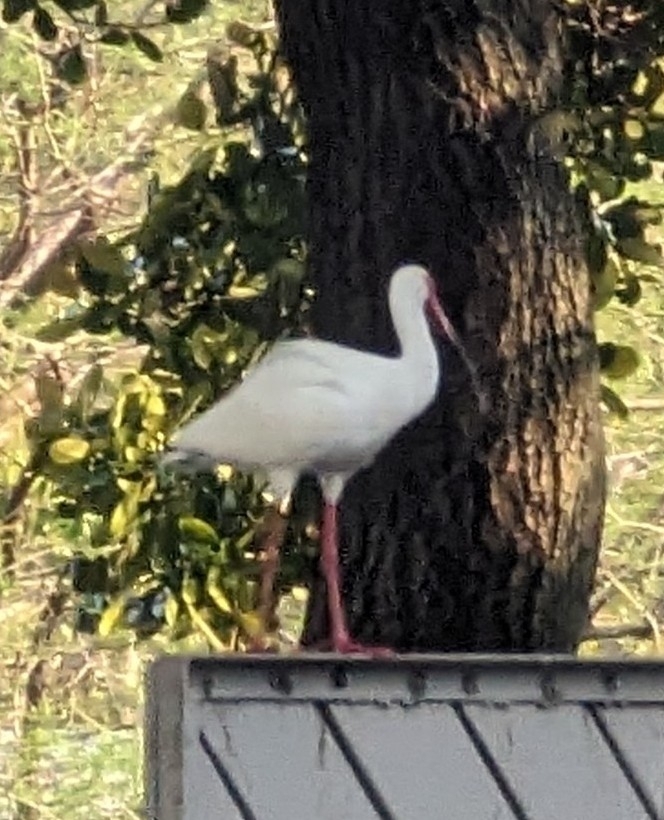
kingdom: Animalia
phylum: Chordata
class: Aves
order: Pelecaniformes
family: Threskiornithidae
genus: Eudocimus
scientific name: Eudocimus albus
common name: White ibis
